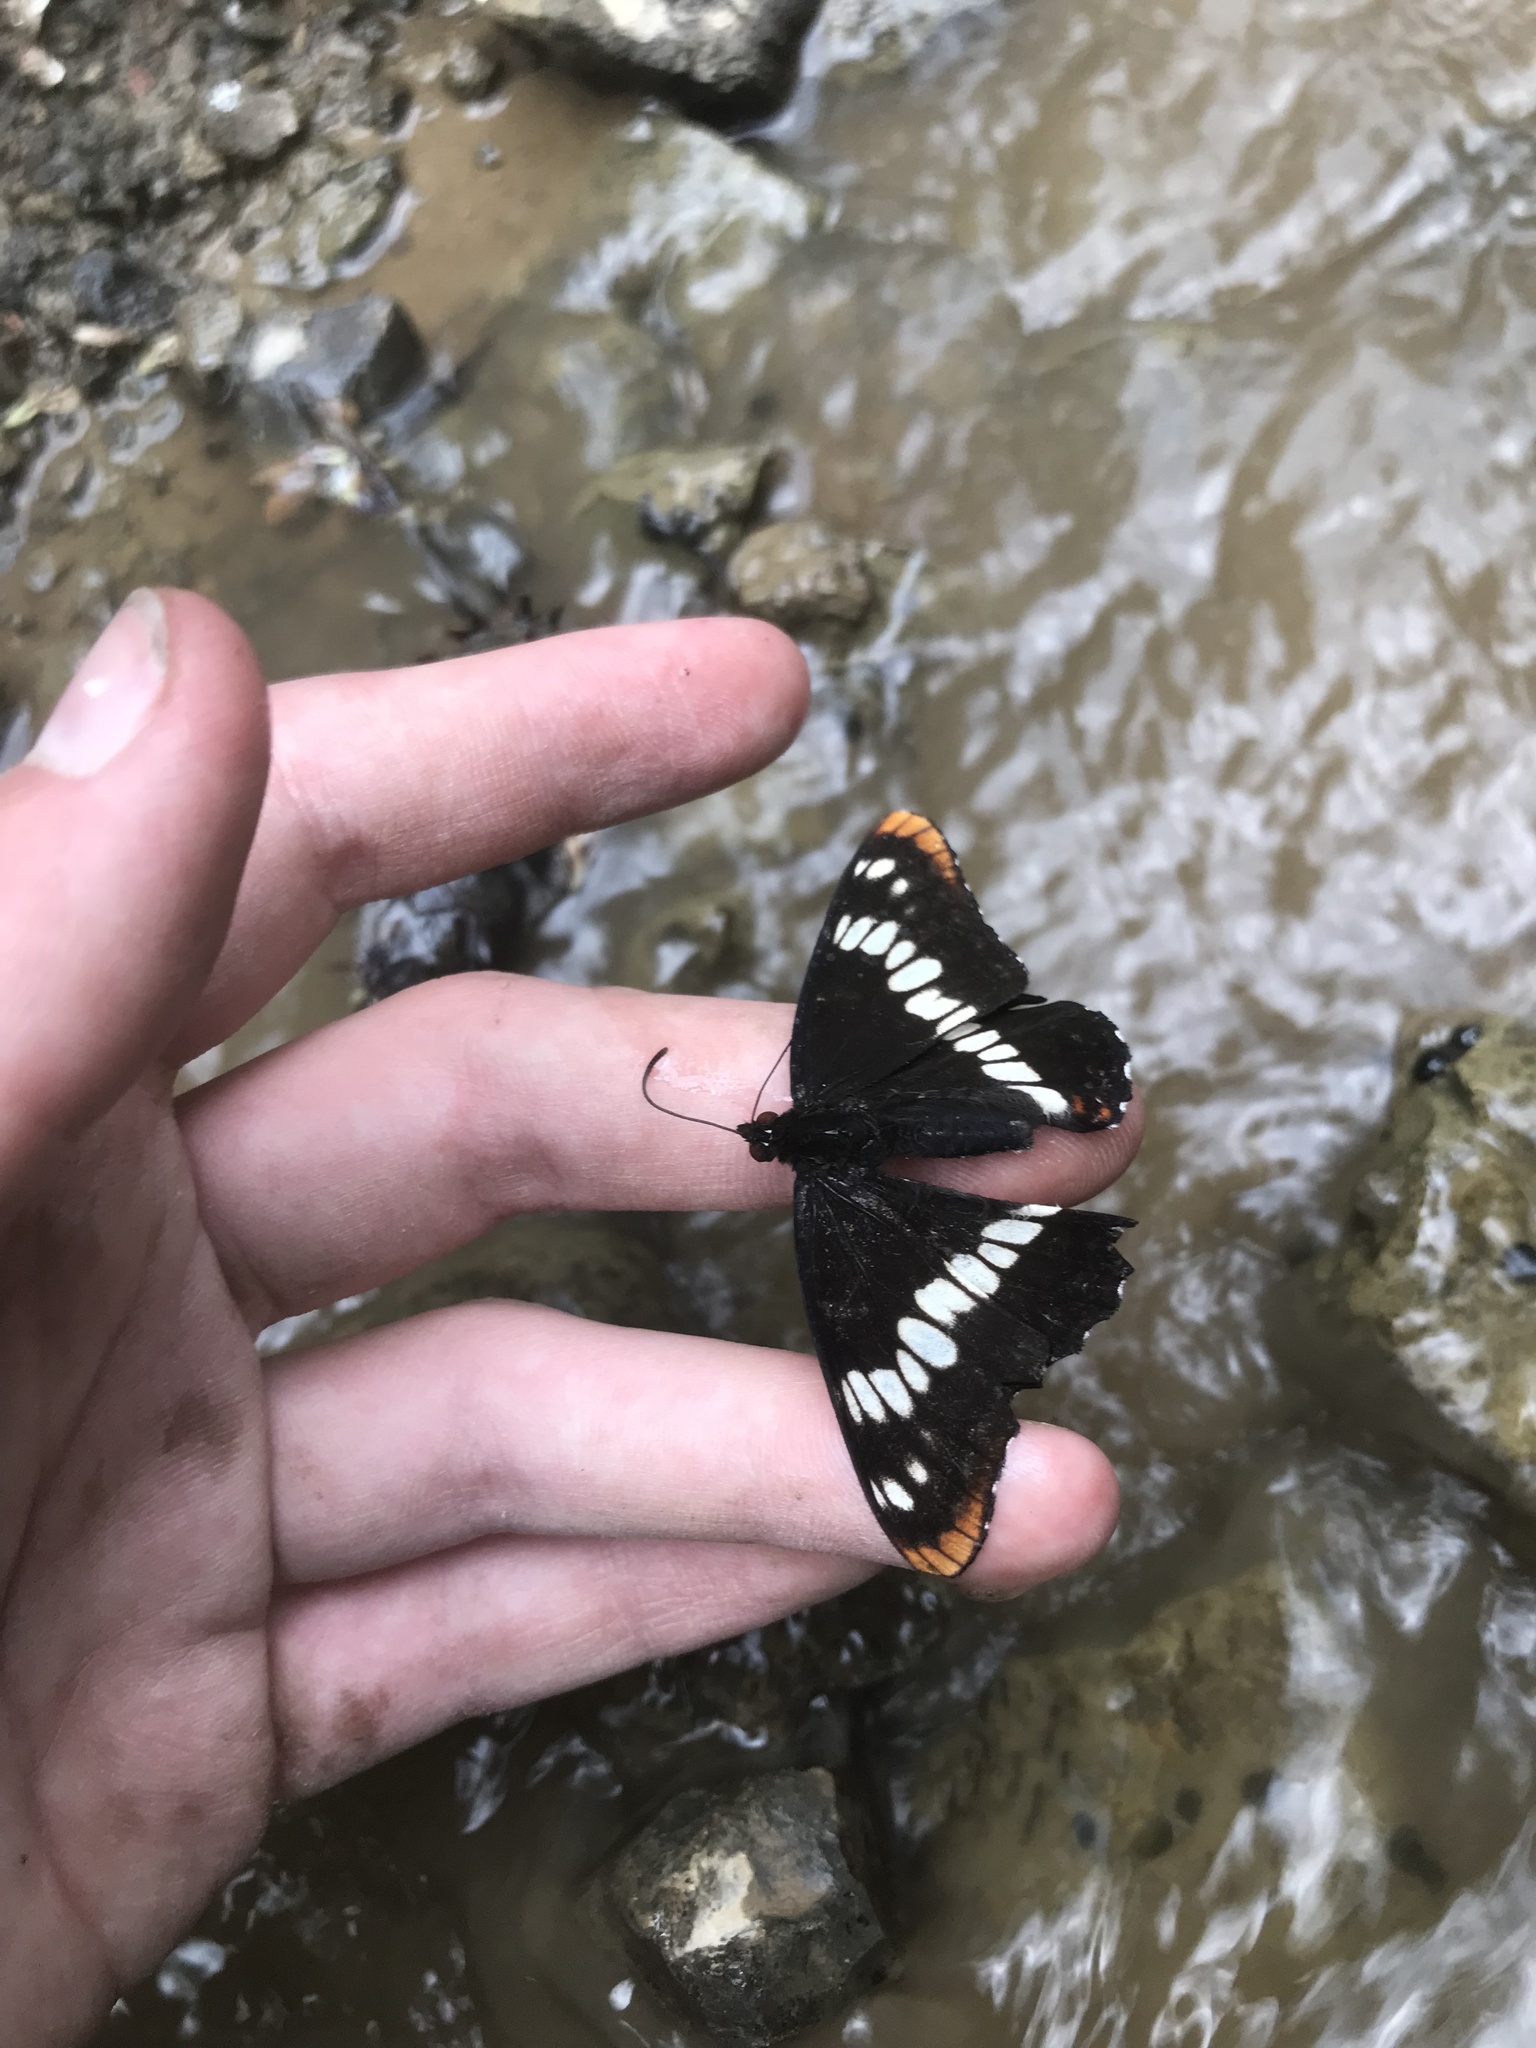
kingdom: Animalia
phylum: Arthropoda
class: Insecta
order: Lepidoptera
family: Nymphalidae
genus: Limenitis
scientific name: Limenitis lorquini
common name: Lorquin's admiral
